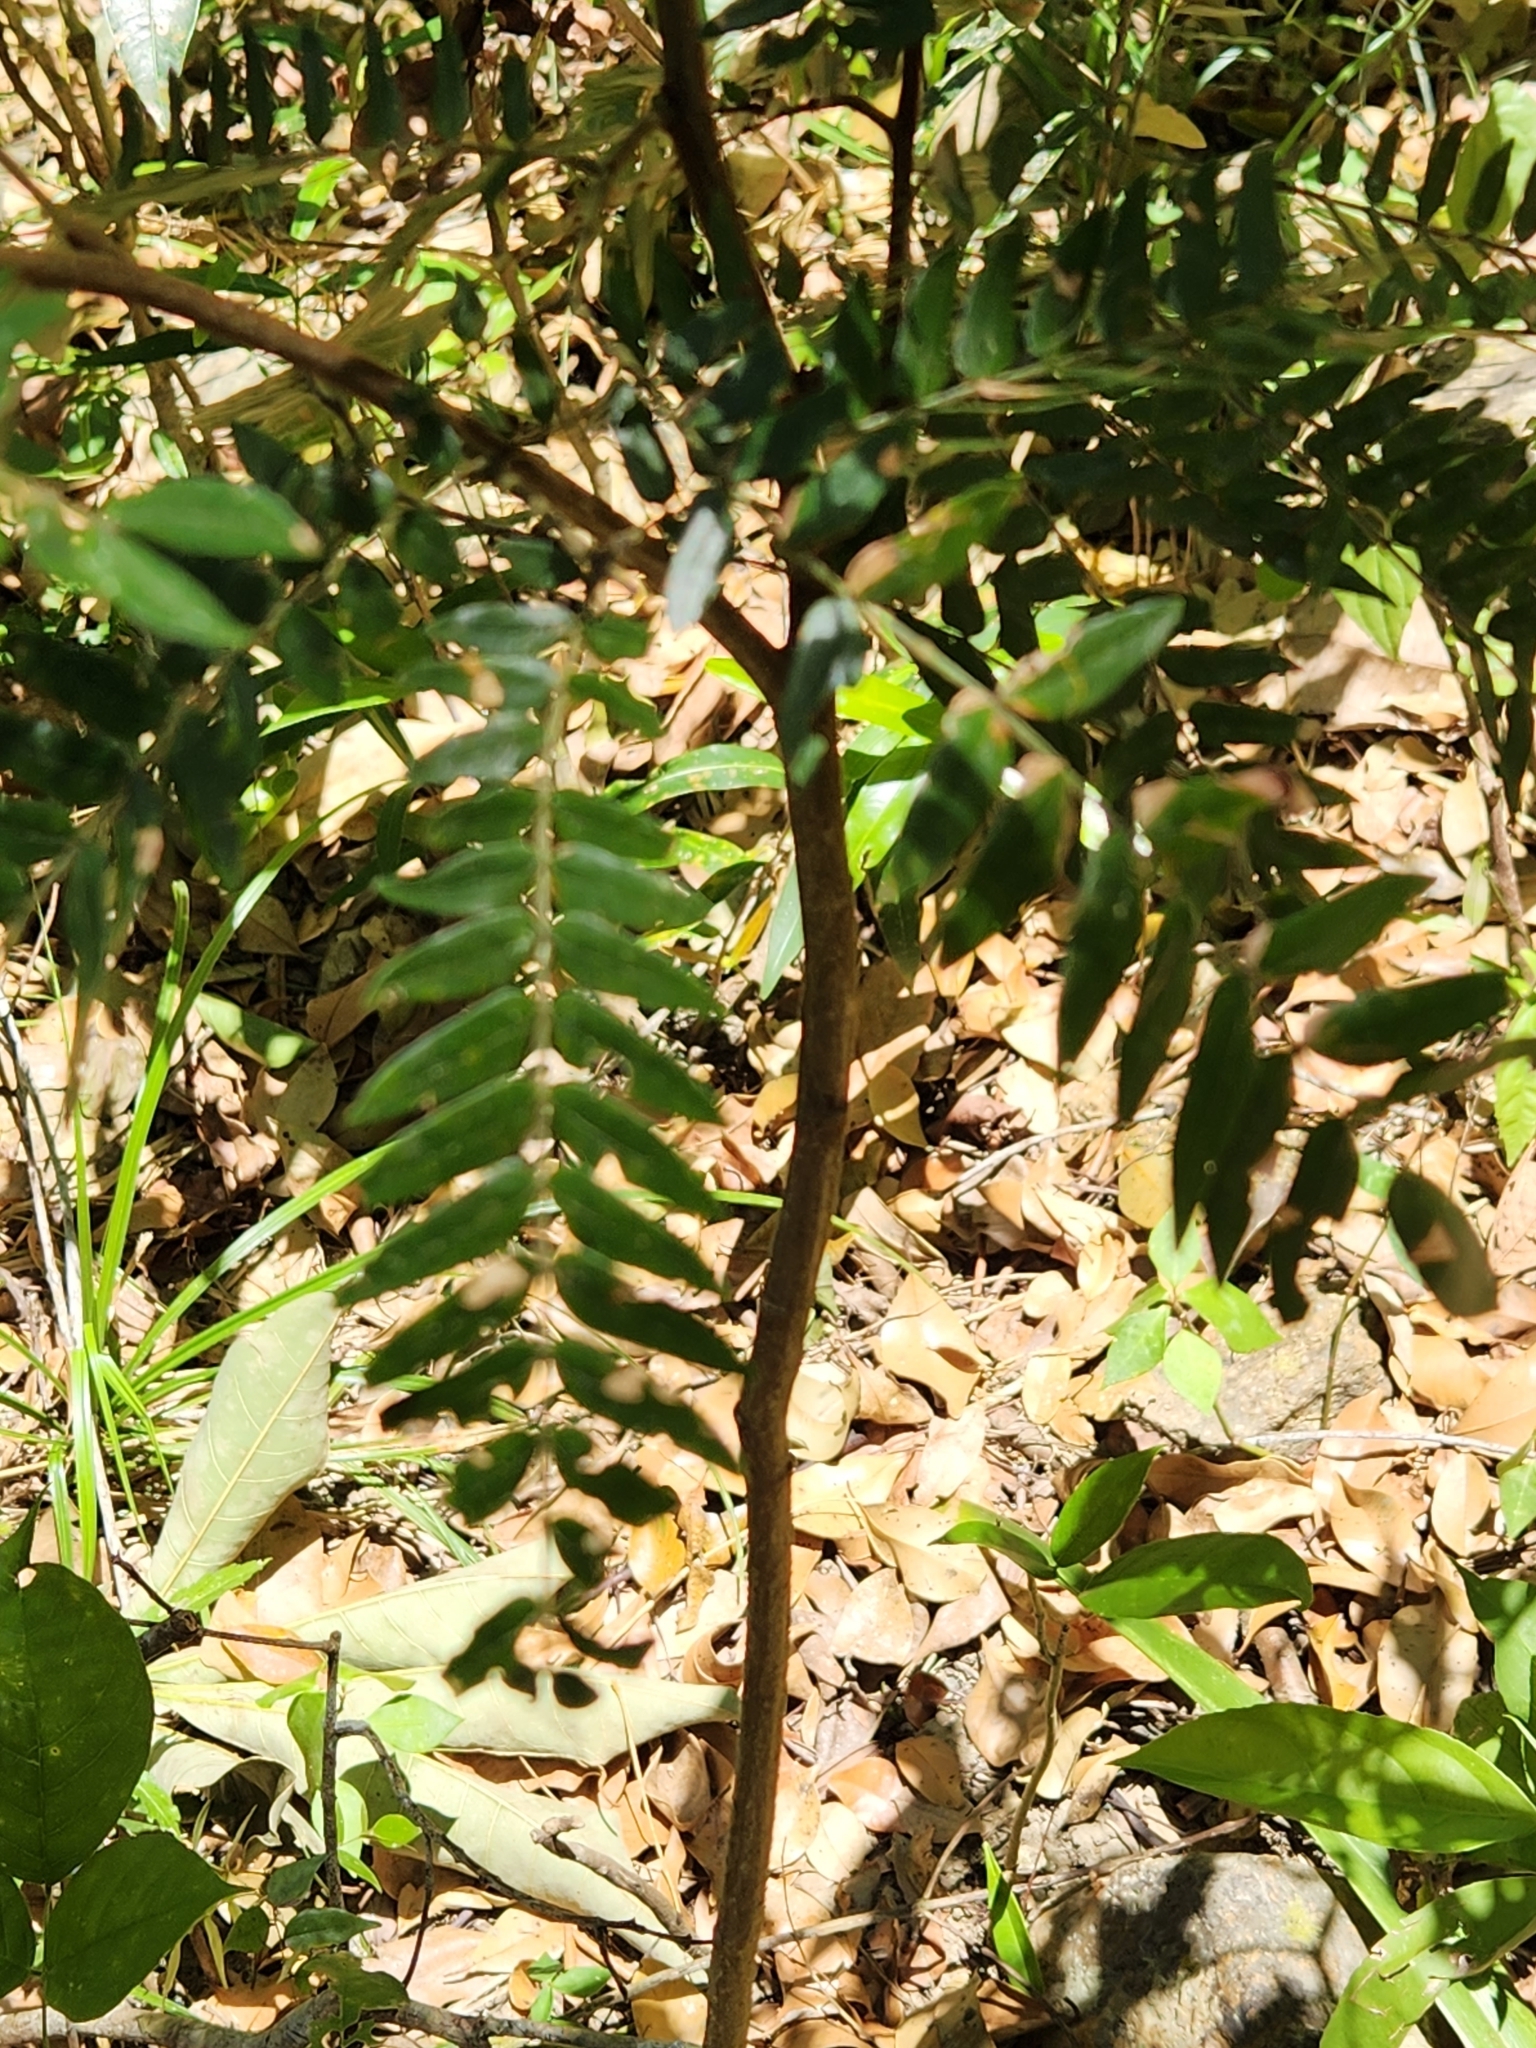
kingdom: Plantae
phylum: Tracheophyta
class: Magnoliopsida
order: Fabales
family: Fabaceae
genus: Cojoba
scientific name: Cojoba graciliflora
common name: Guadeloupe blackbead
